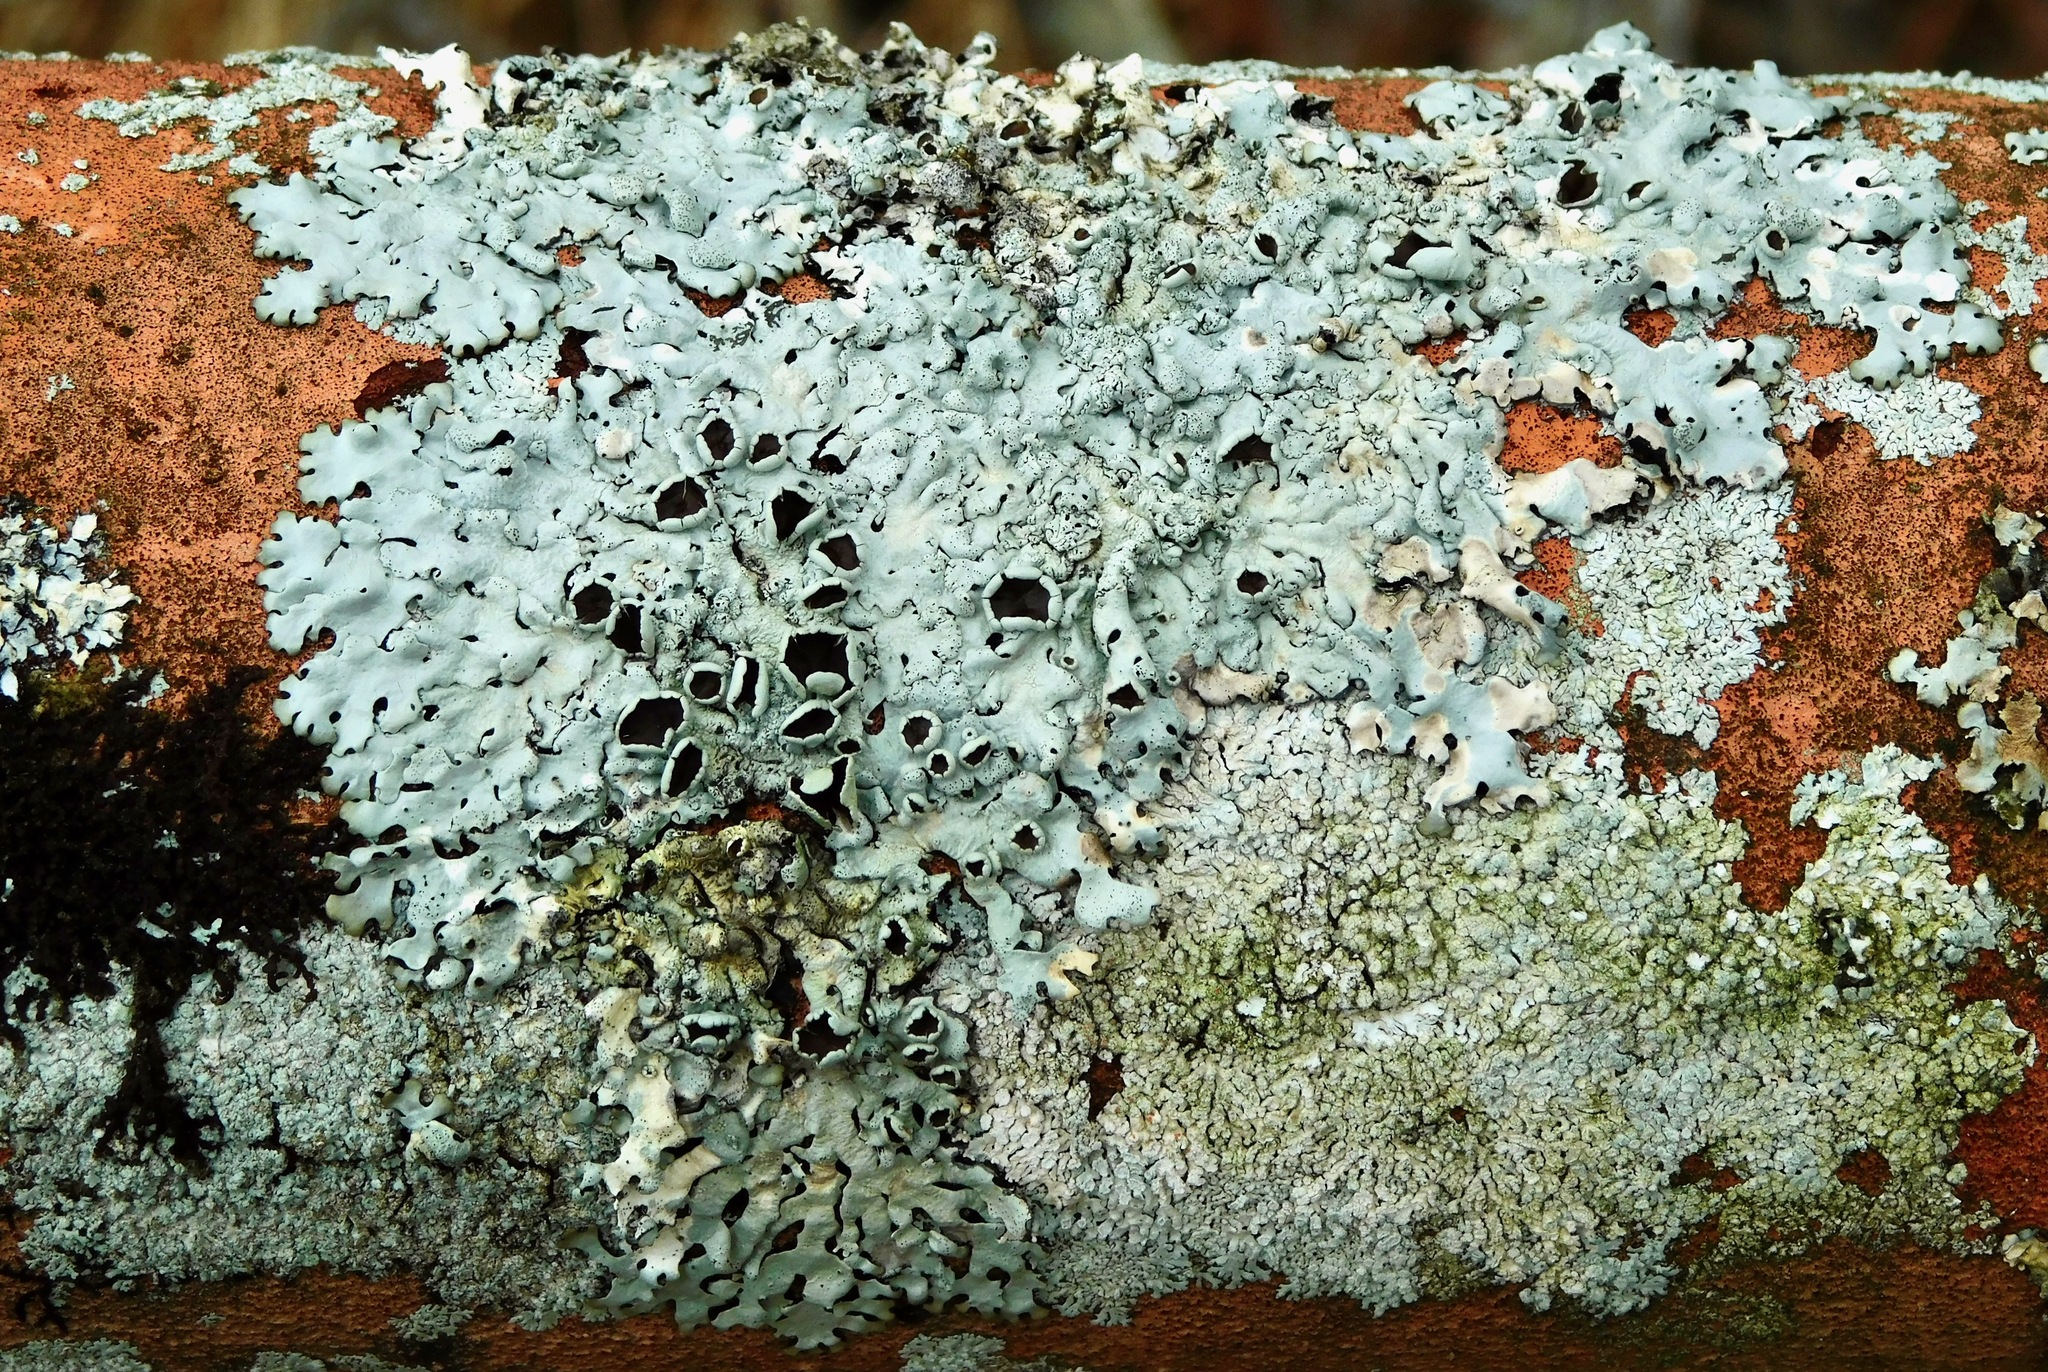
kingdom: Fungi
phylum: Ascomycota
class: Lecanoromycetes
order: Lecanorales
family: Parmeliaceae
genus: Xanthoparmelia
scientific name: Xanthoparmelia cumberlandia
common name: Cumberland rock shield
